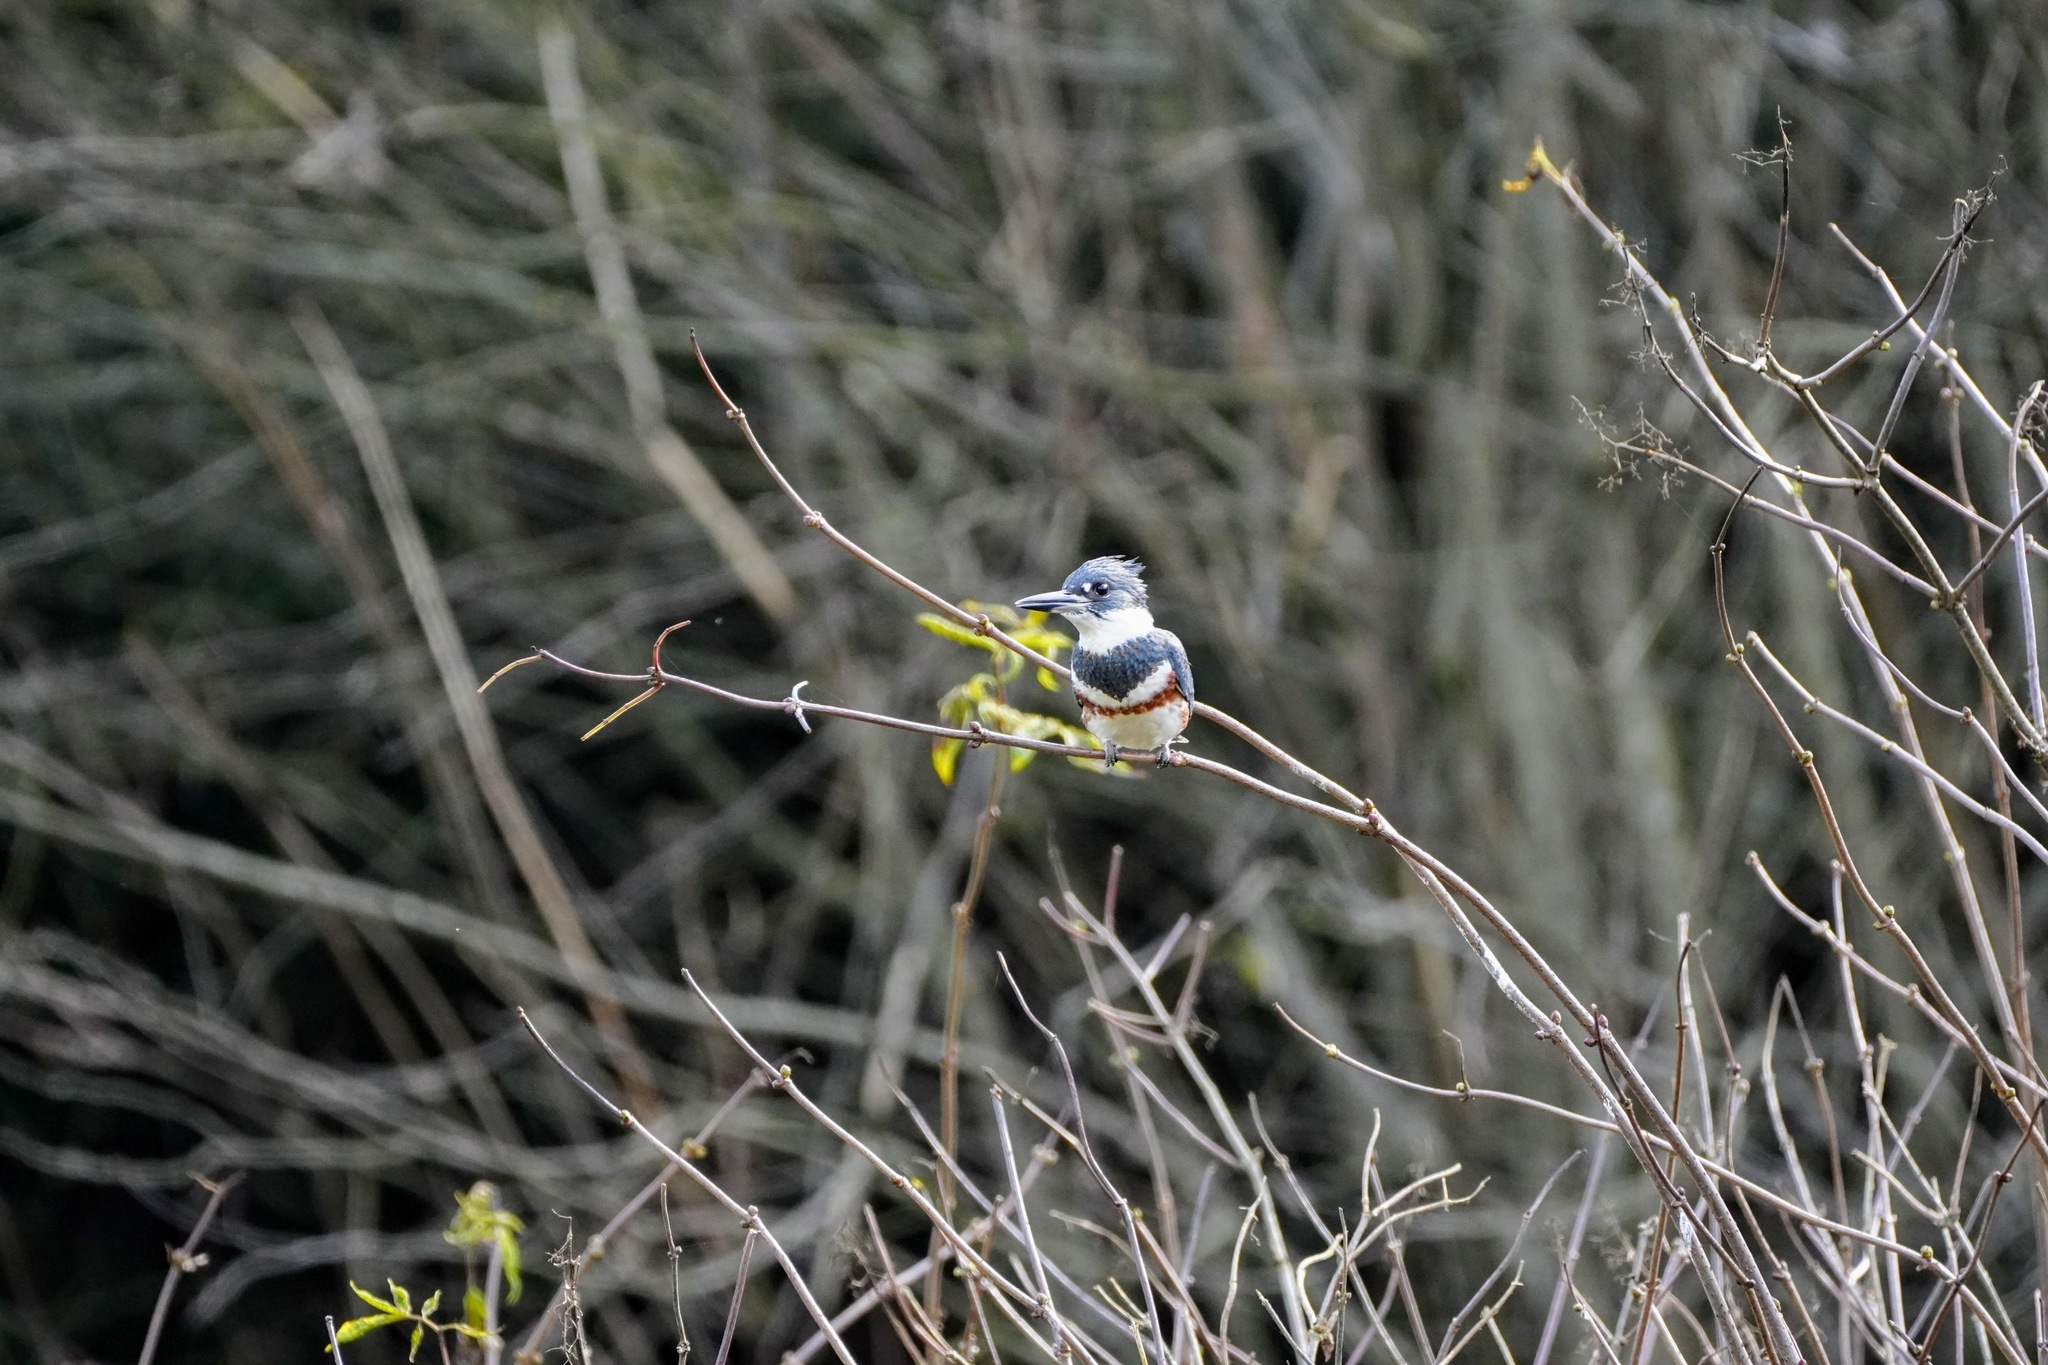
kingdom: Animalia
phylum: Chordata
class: Aves
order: Coraciiformes
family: Alcedinidae
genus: Megaceryle
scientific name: Megaceryle alcyon
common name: Belted kingfisher
